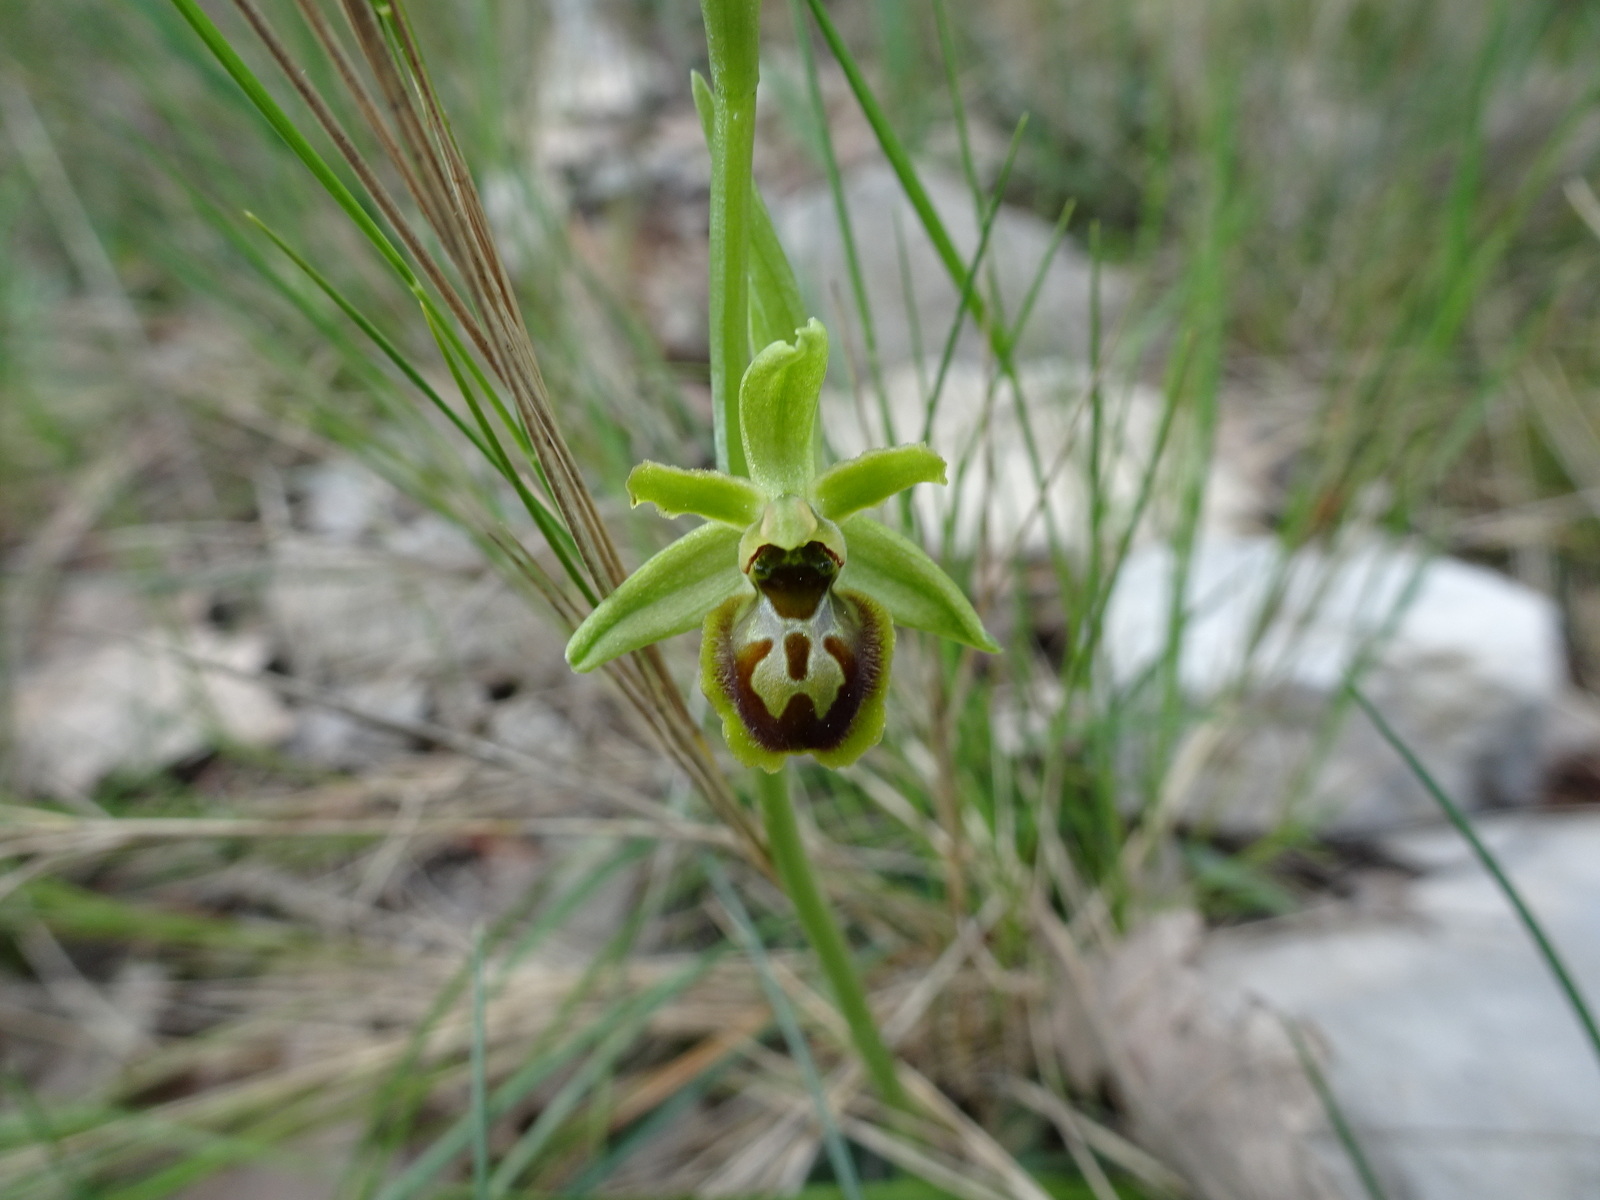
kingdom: Plantae
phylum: Tracheophyta
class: Liliopsida
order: Asparagales
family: Orchidaceae
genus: Ophrys
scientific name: Ophrys araneola
